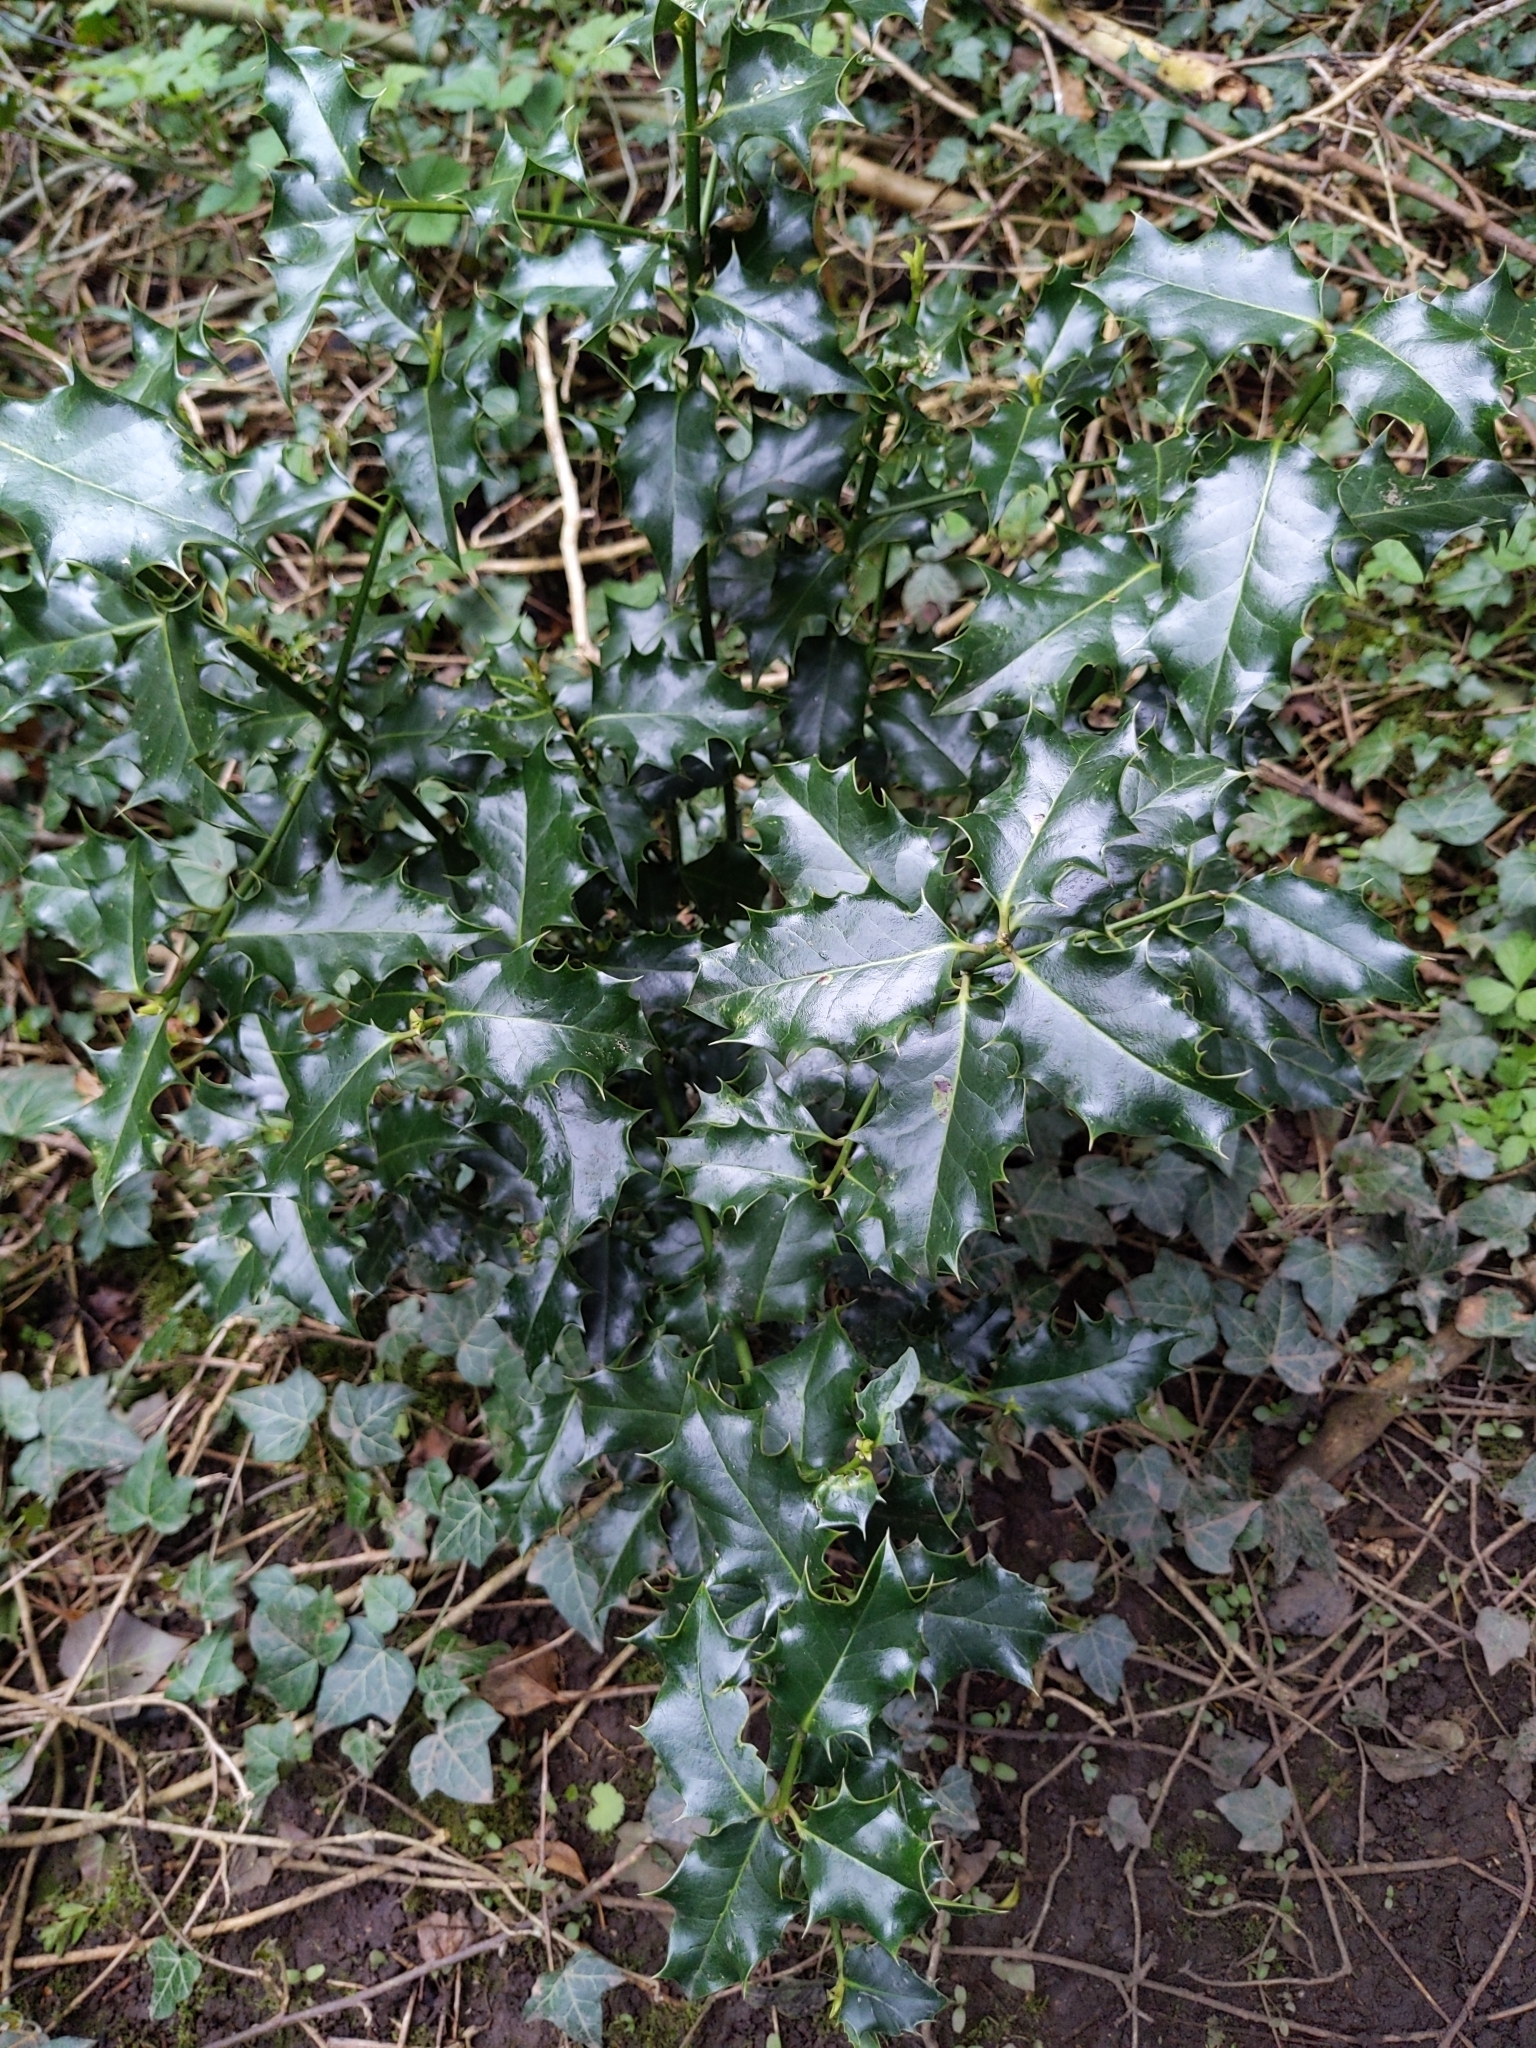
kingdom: Plantae
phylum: Tracheophyta
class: Magnoliopsida
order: Aquifoliales
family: Aquifoliaceae
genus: Ilex
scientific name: Ilex aquifolium
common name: English holly
